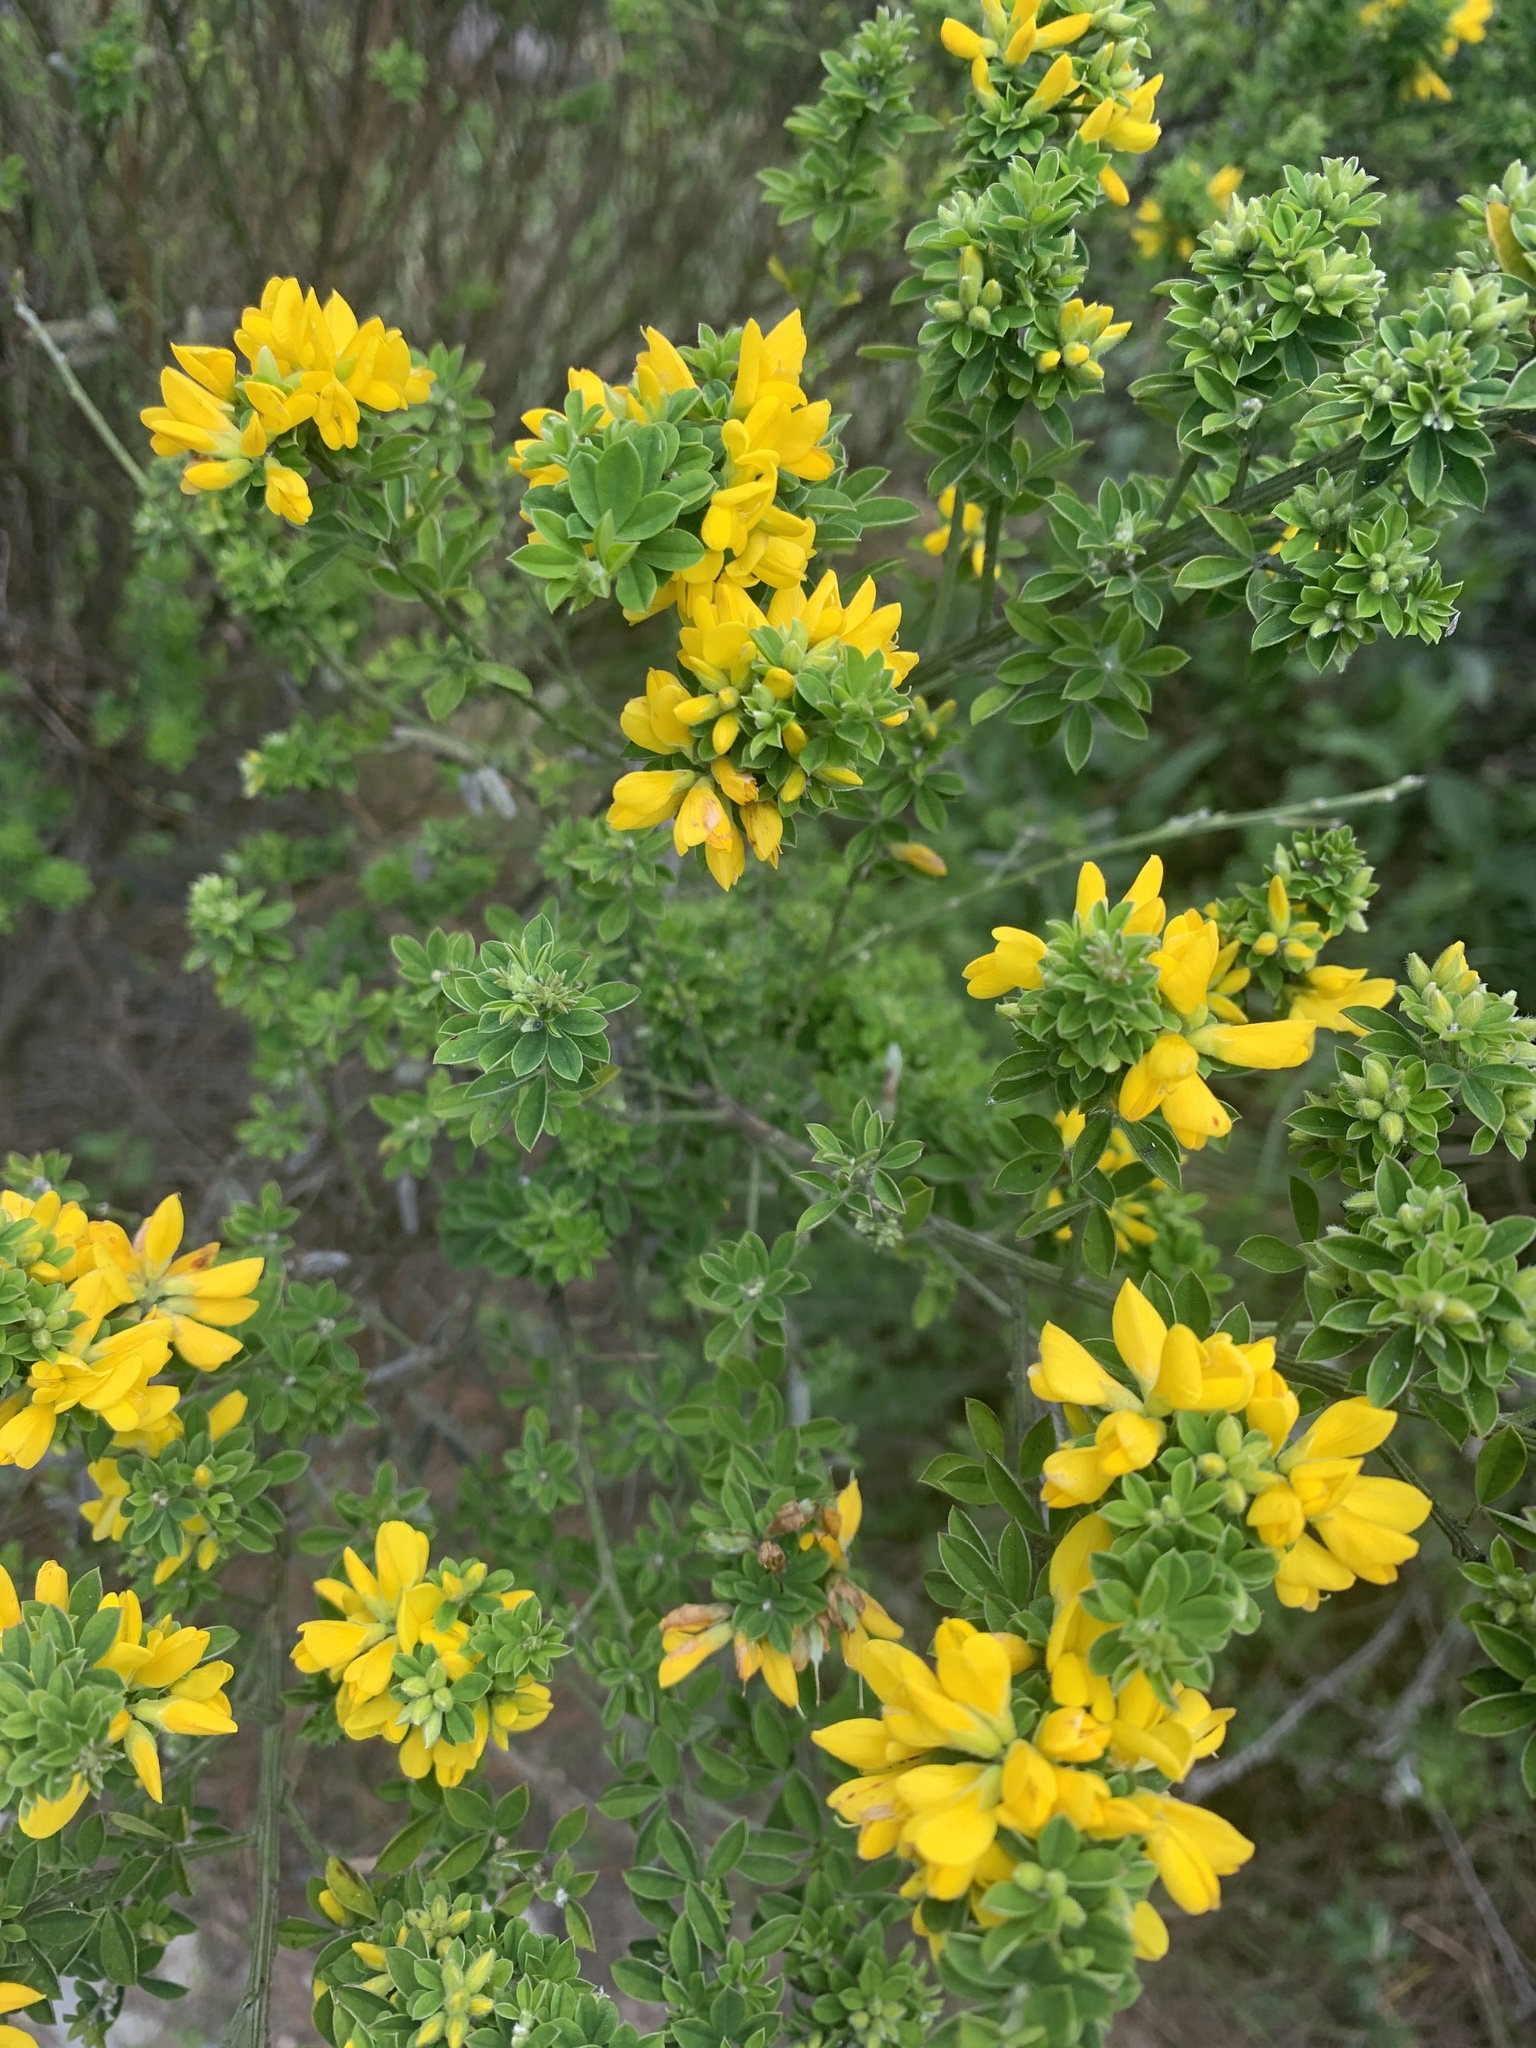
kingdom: Plantae
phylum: Tracheophyta
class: Magnoliopsida
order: Fabales
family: Fabaceae
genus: Genista
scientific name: Genista monspessulana
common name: Montpellier broom
